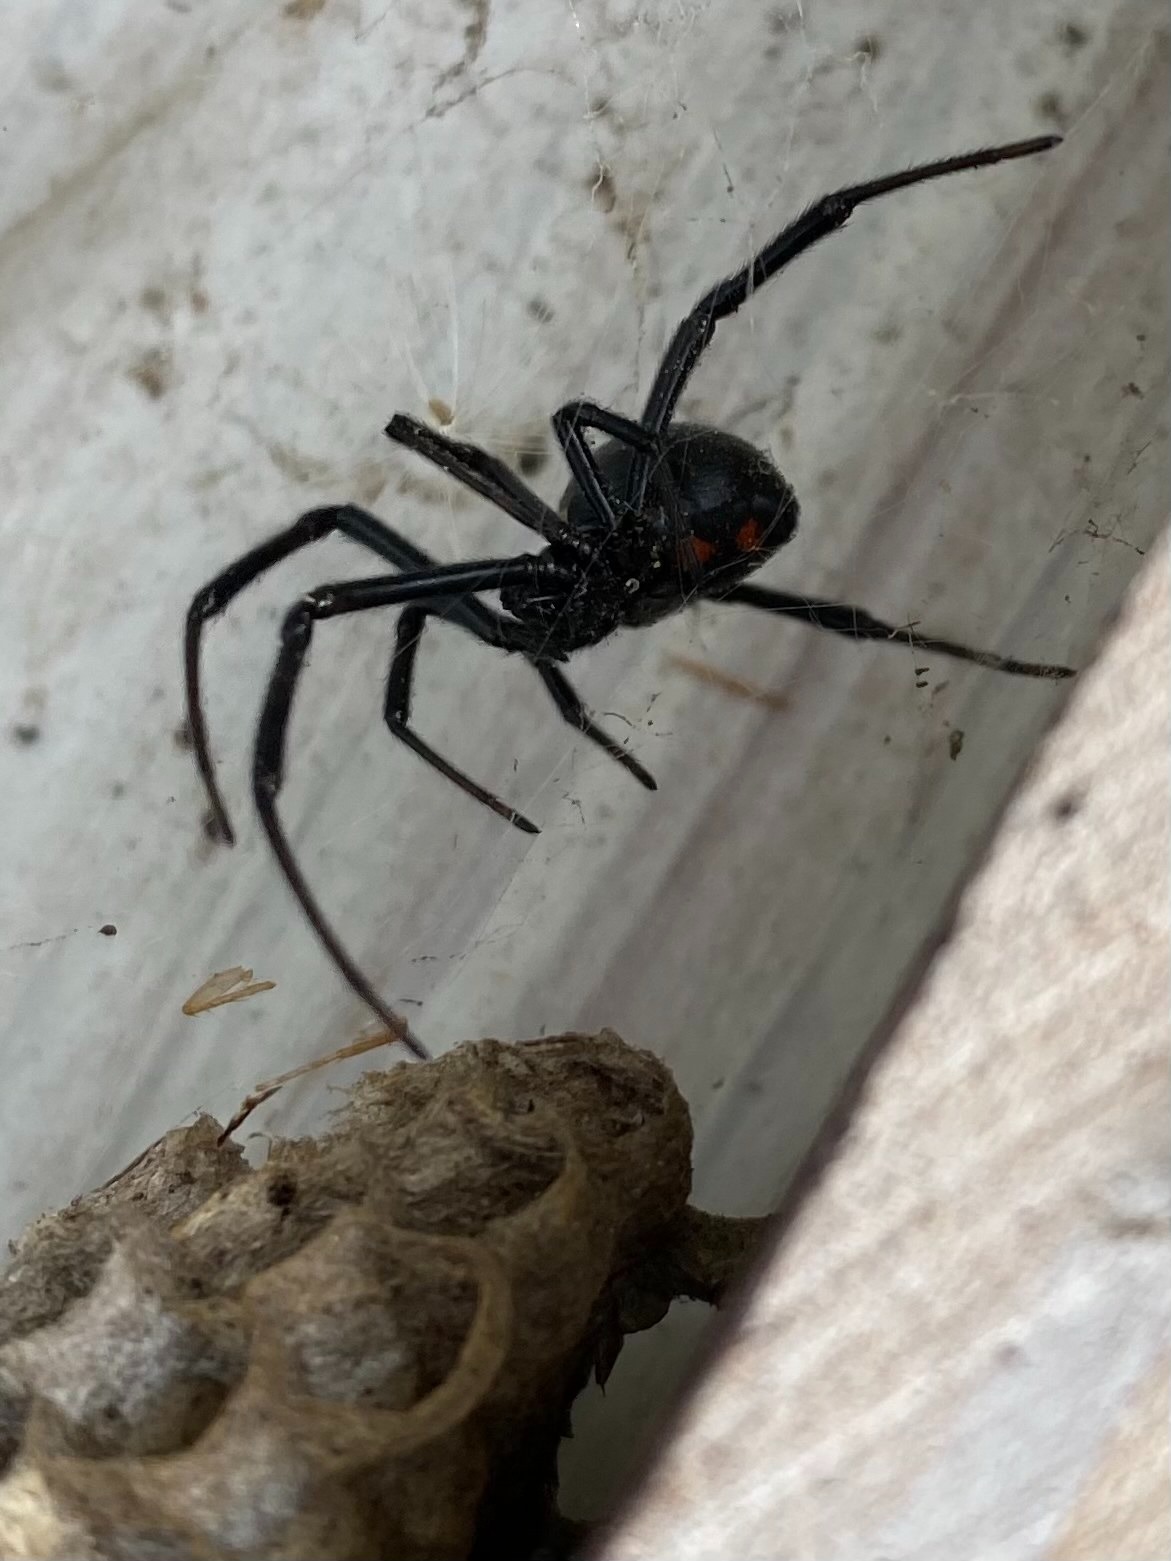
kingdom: Animalia
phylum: Arthropoda
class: Arachnida
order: Araneae
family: Theridiidae
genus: Latrodectus
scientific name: Latrodectus hesperus
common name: Western black widow
